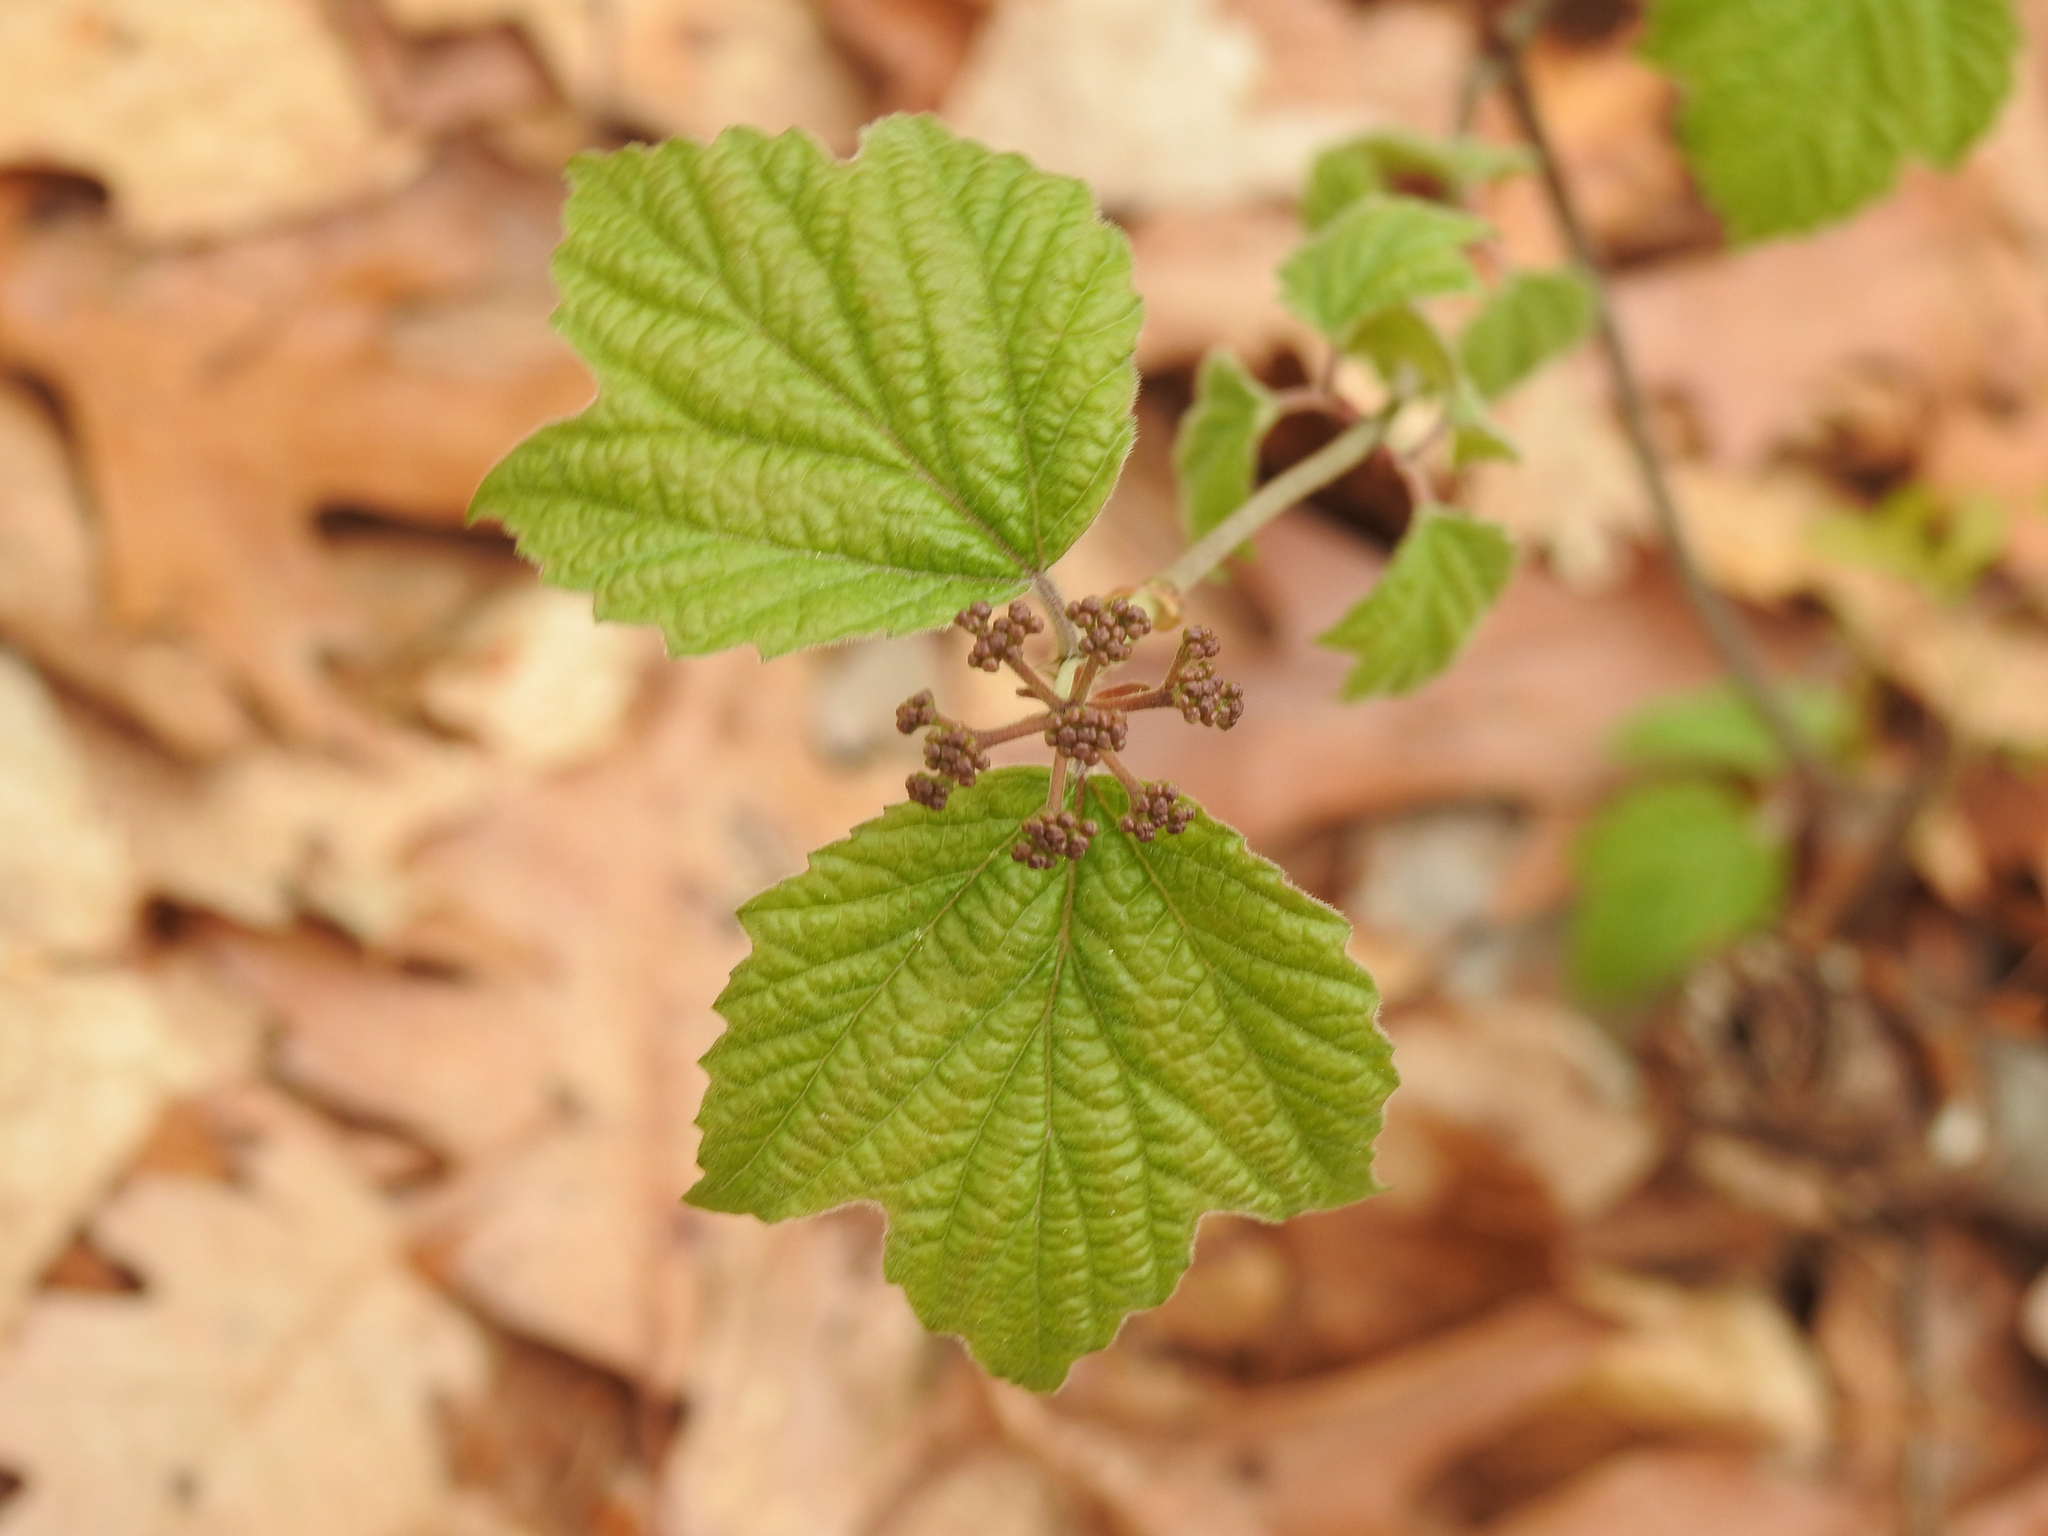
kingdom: Plantae
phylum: Tracheophyta
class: Magnoliopsida
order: Dipsacales
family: Viburnaceae
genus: Viburnum
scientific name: Viburnum acerifolium
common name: Dockmackie
